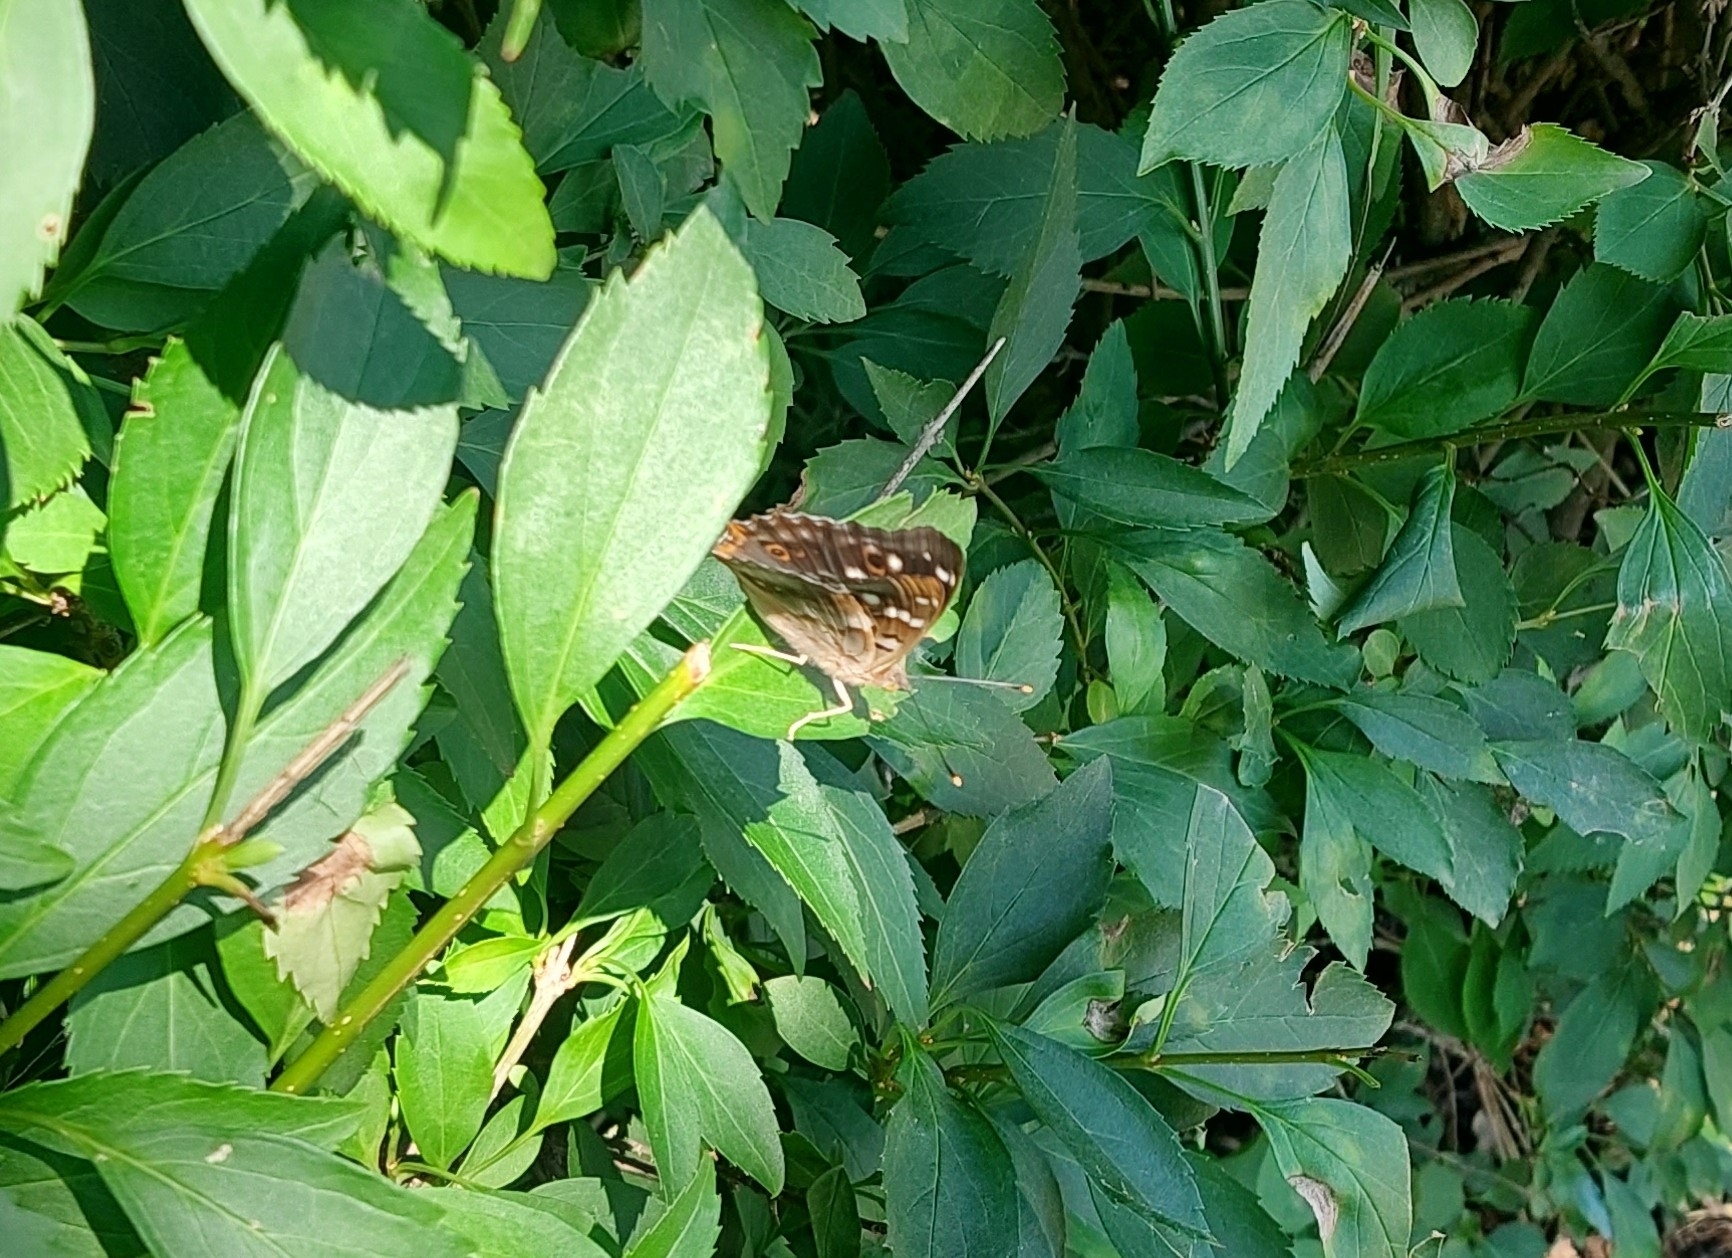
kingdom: Animalia
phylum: Arthropoda
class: Insecta
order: Lepidoptera
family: Nymphalidae
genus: Apatura
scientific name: Apatura ilia
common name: Lesser purple emperor
